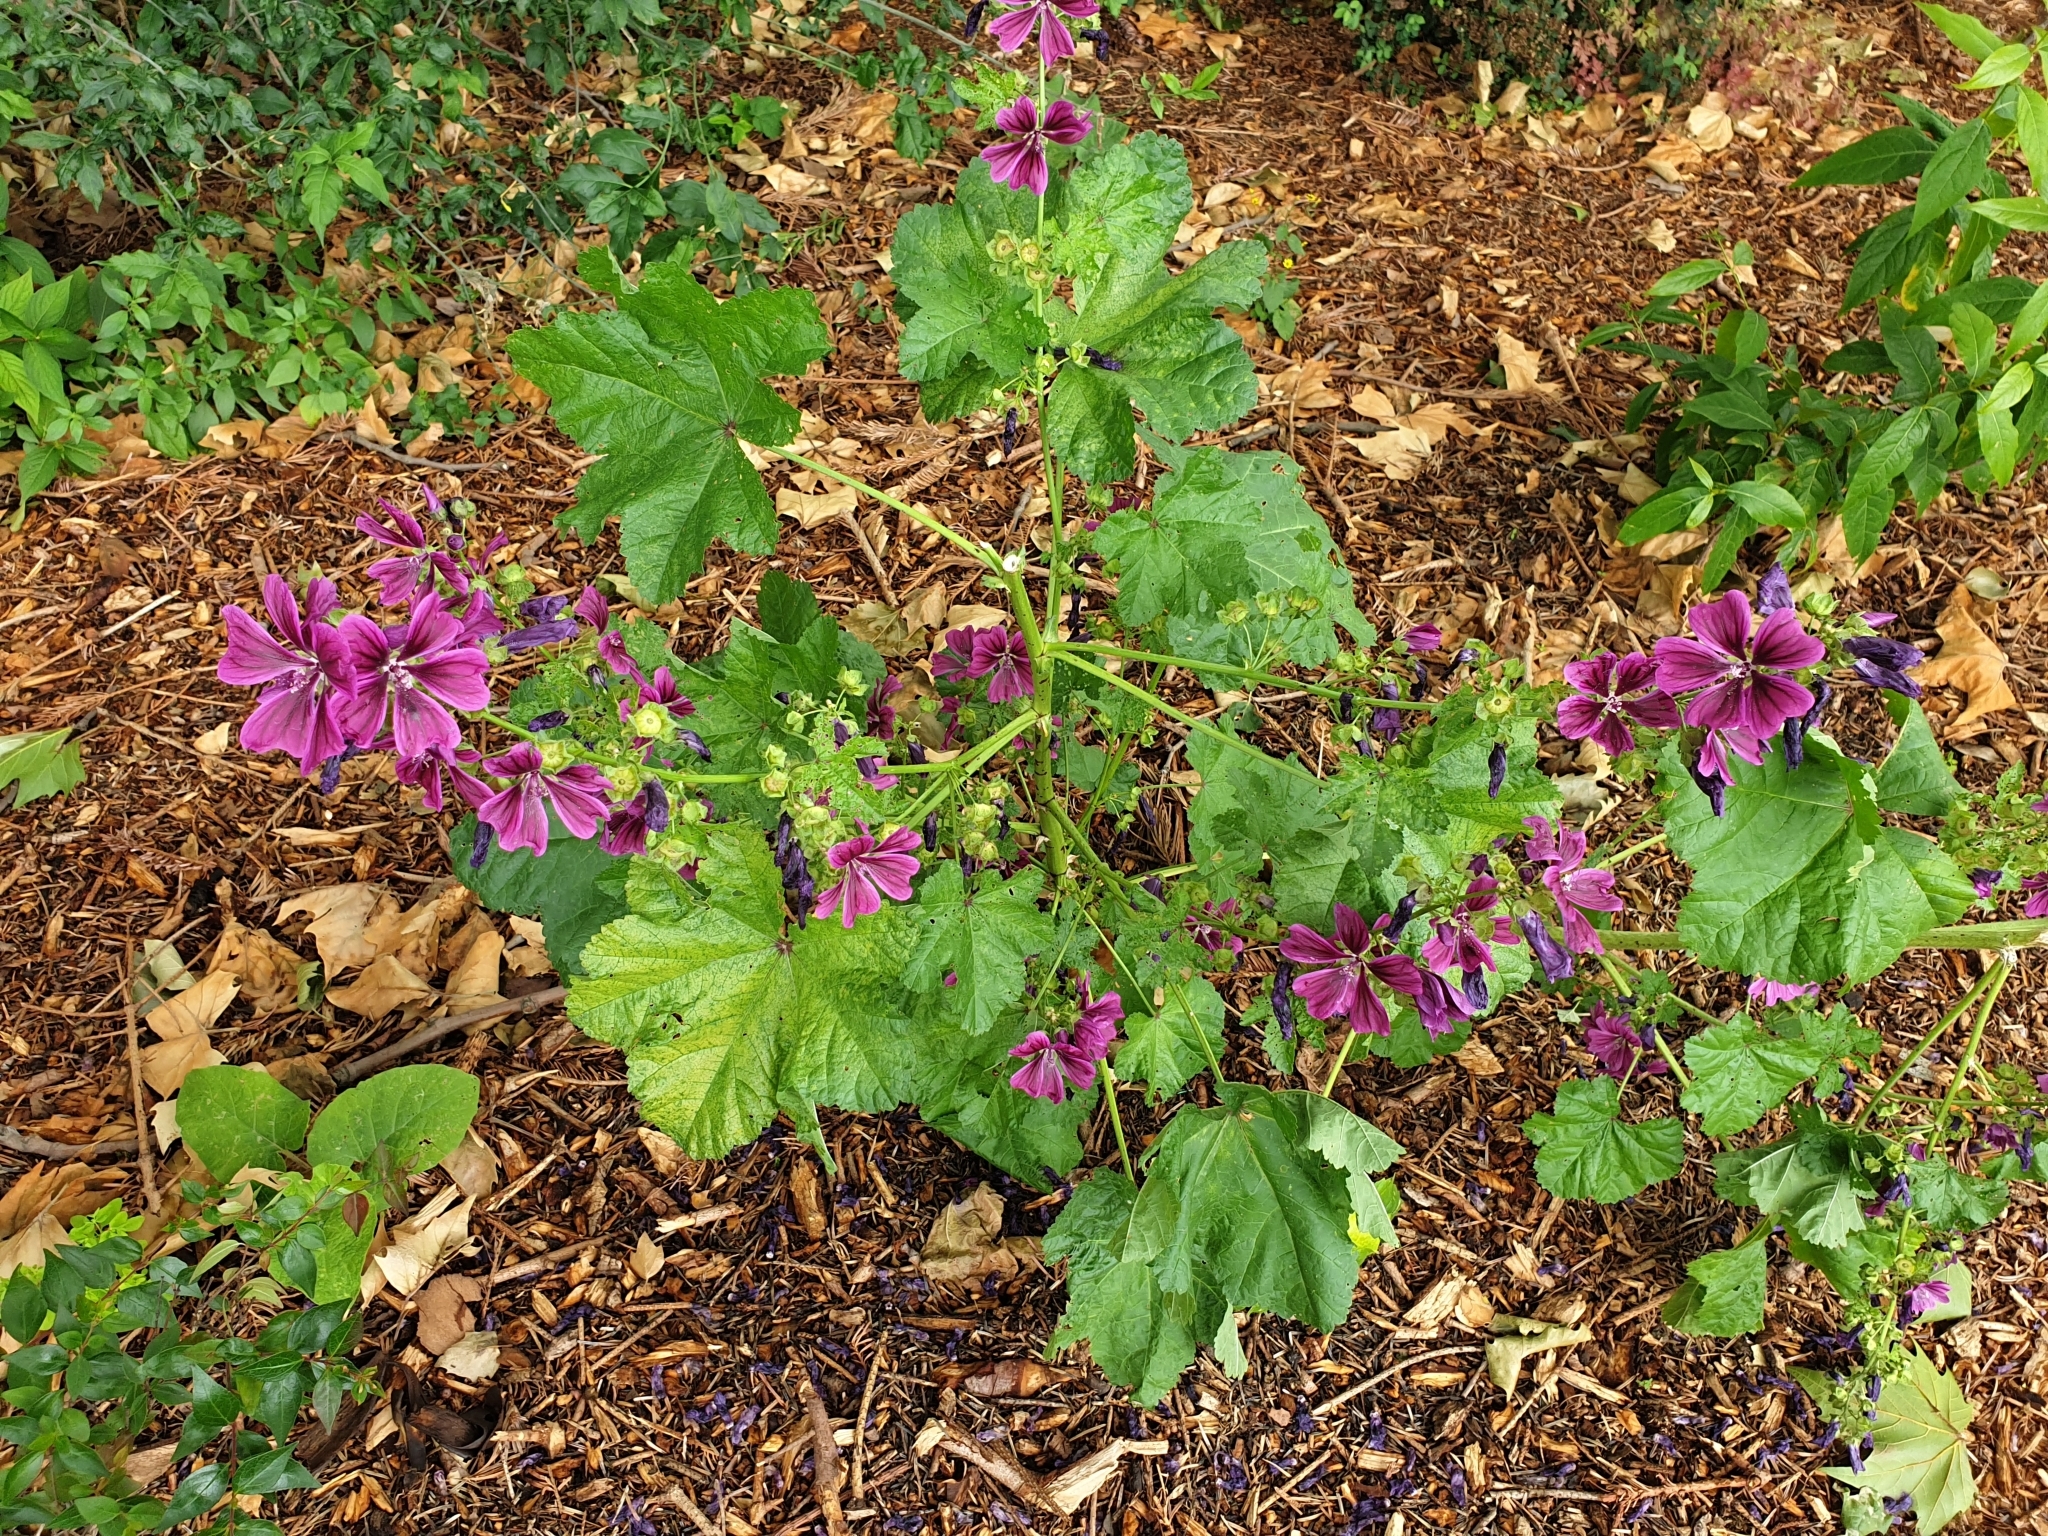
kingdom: Plantae
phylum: Tracheophyta
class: Magnoliopsida
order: Malvales
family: Malvaceae
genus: Malva
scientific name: Malva sylvestris
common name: Common mallow
